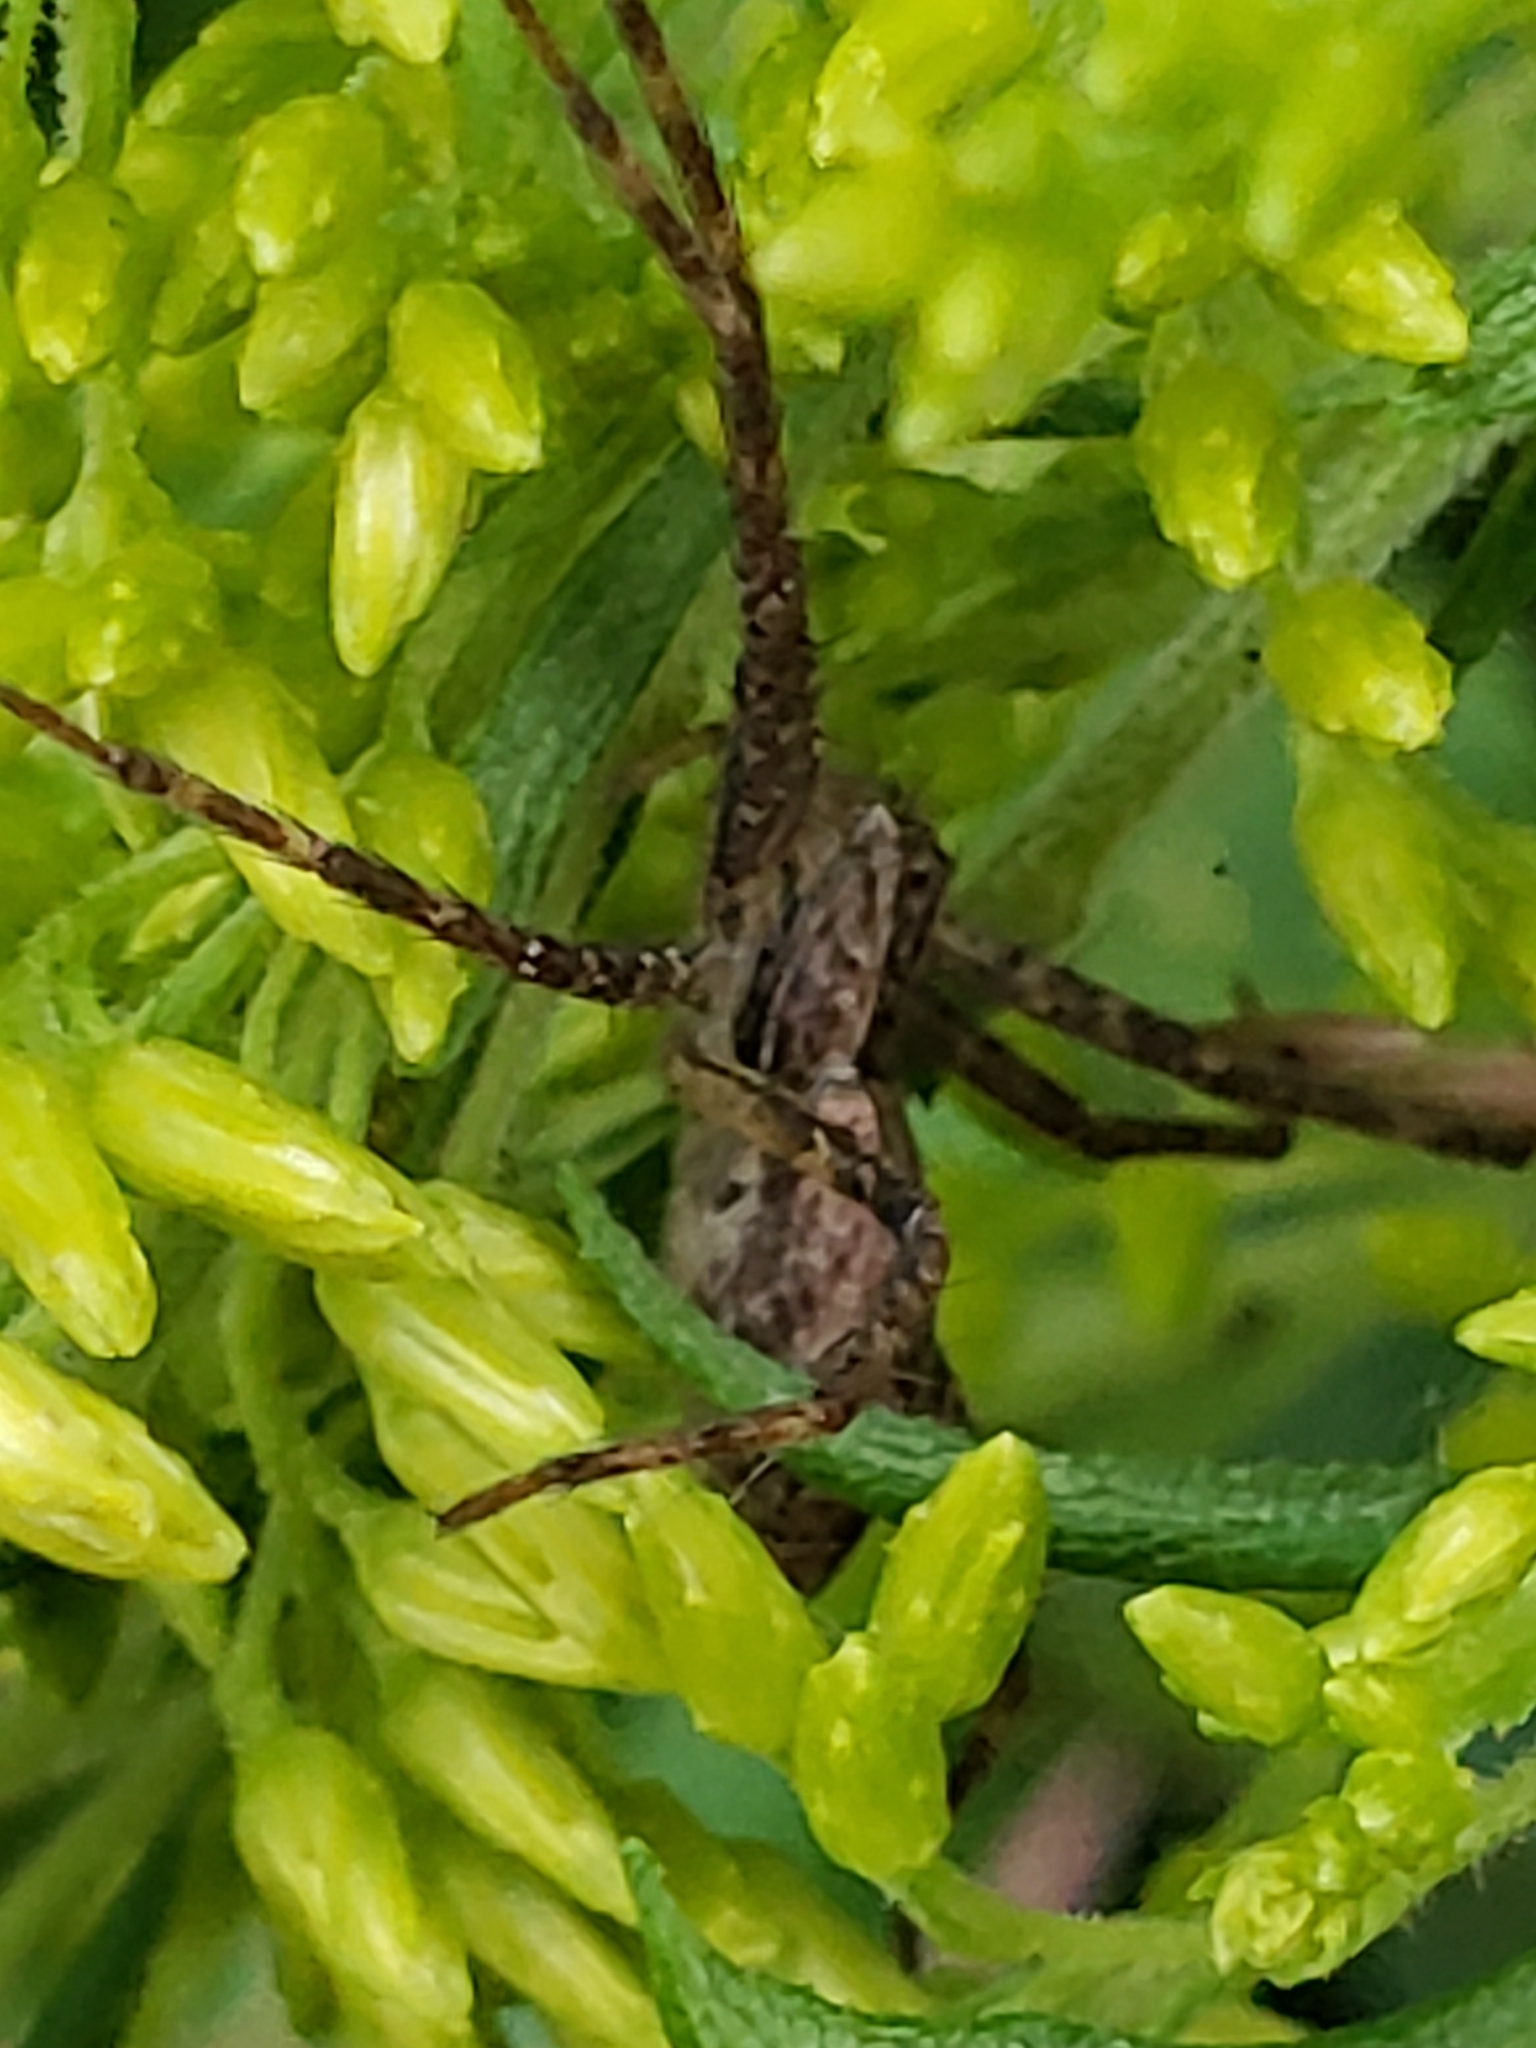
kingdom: Animalia
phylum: Arthropoda
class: Arachnida
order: Araneae
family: Pisauridae
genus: Pisaurina
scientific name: Pisaurina mira
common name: American nursery web spider
